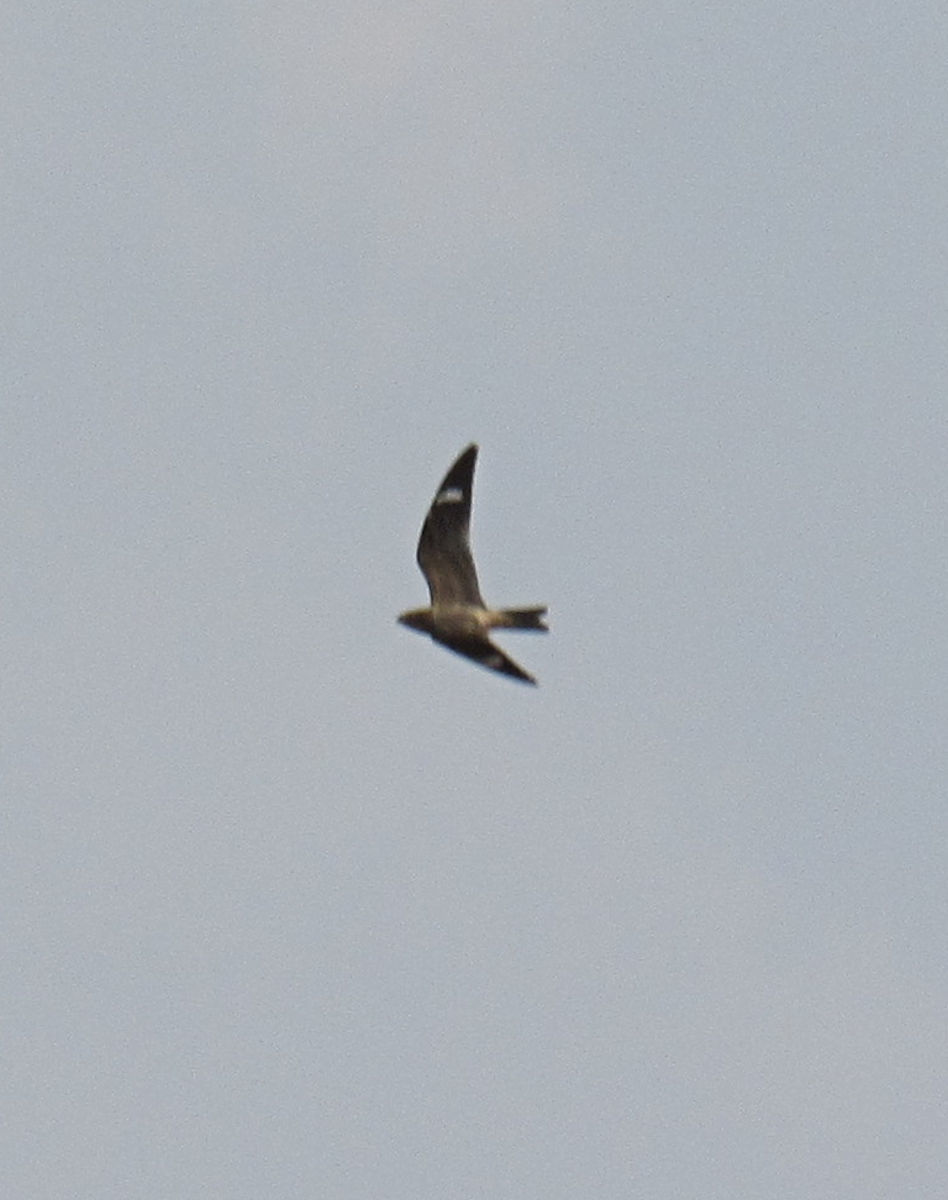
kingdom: Animalia
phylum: Chordata
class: Aves
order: Caprimulgiformes
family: Caprimulgidae
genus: Chordeiles
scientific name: Chordeiles minor
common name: Common nighthawk
